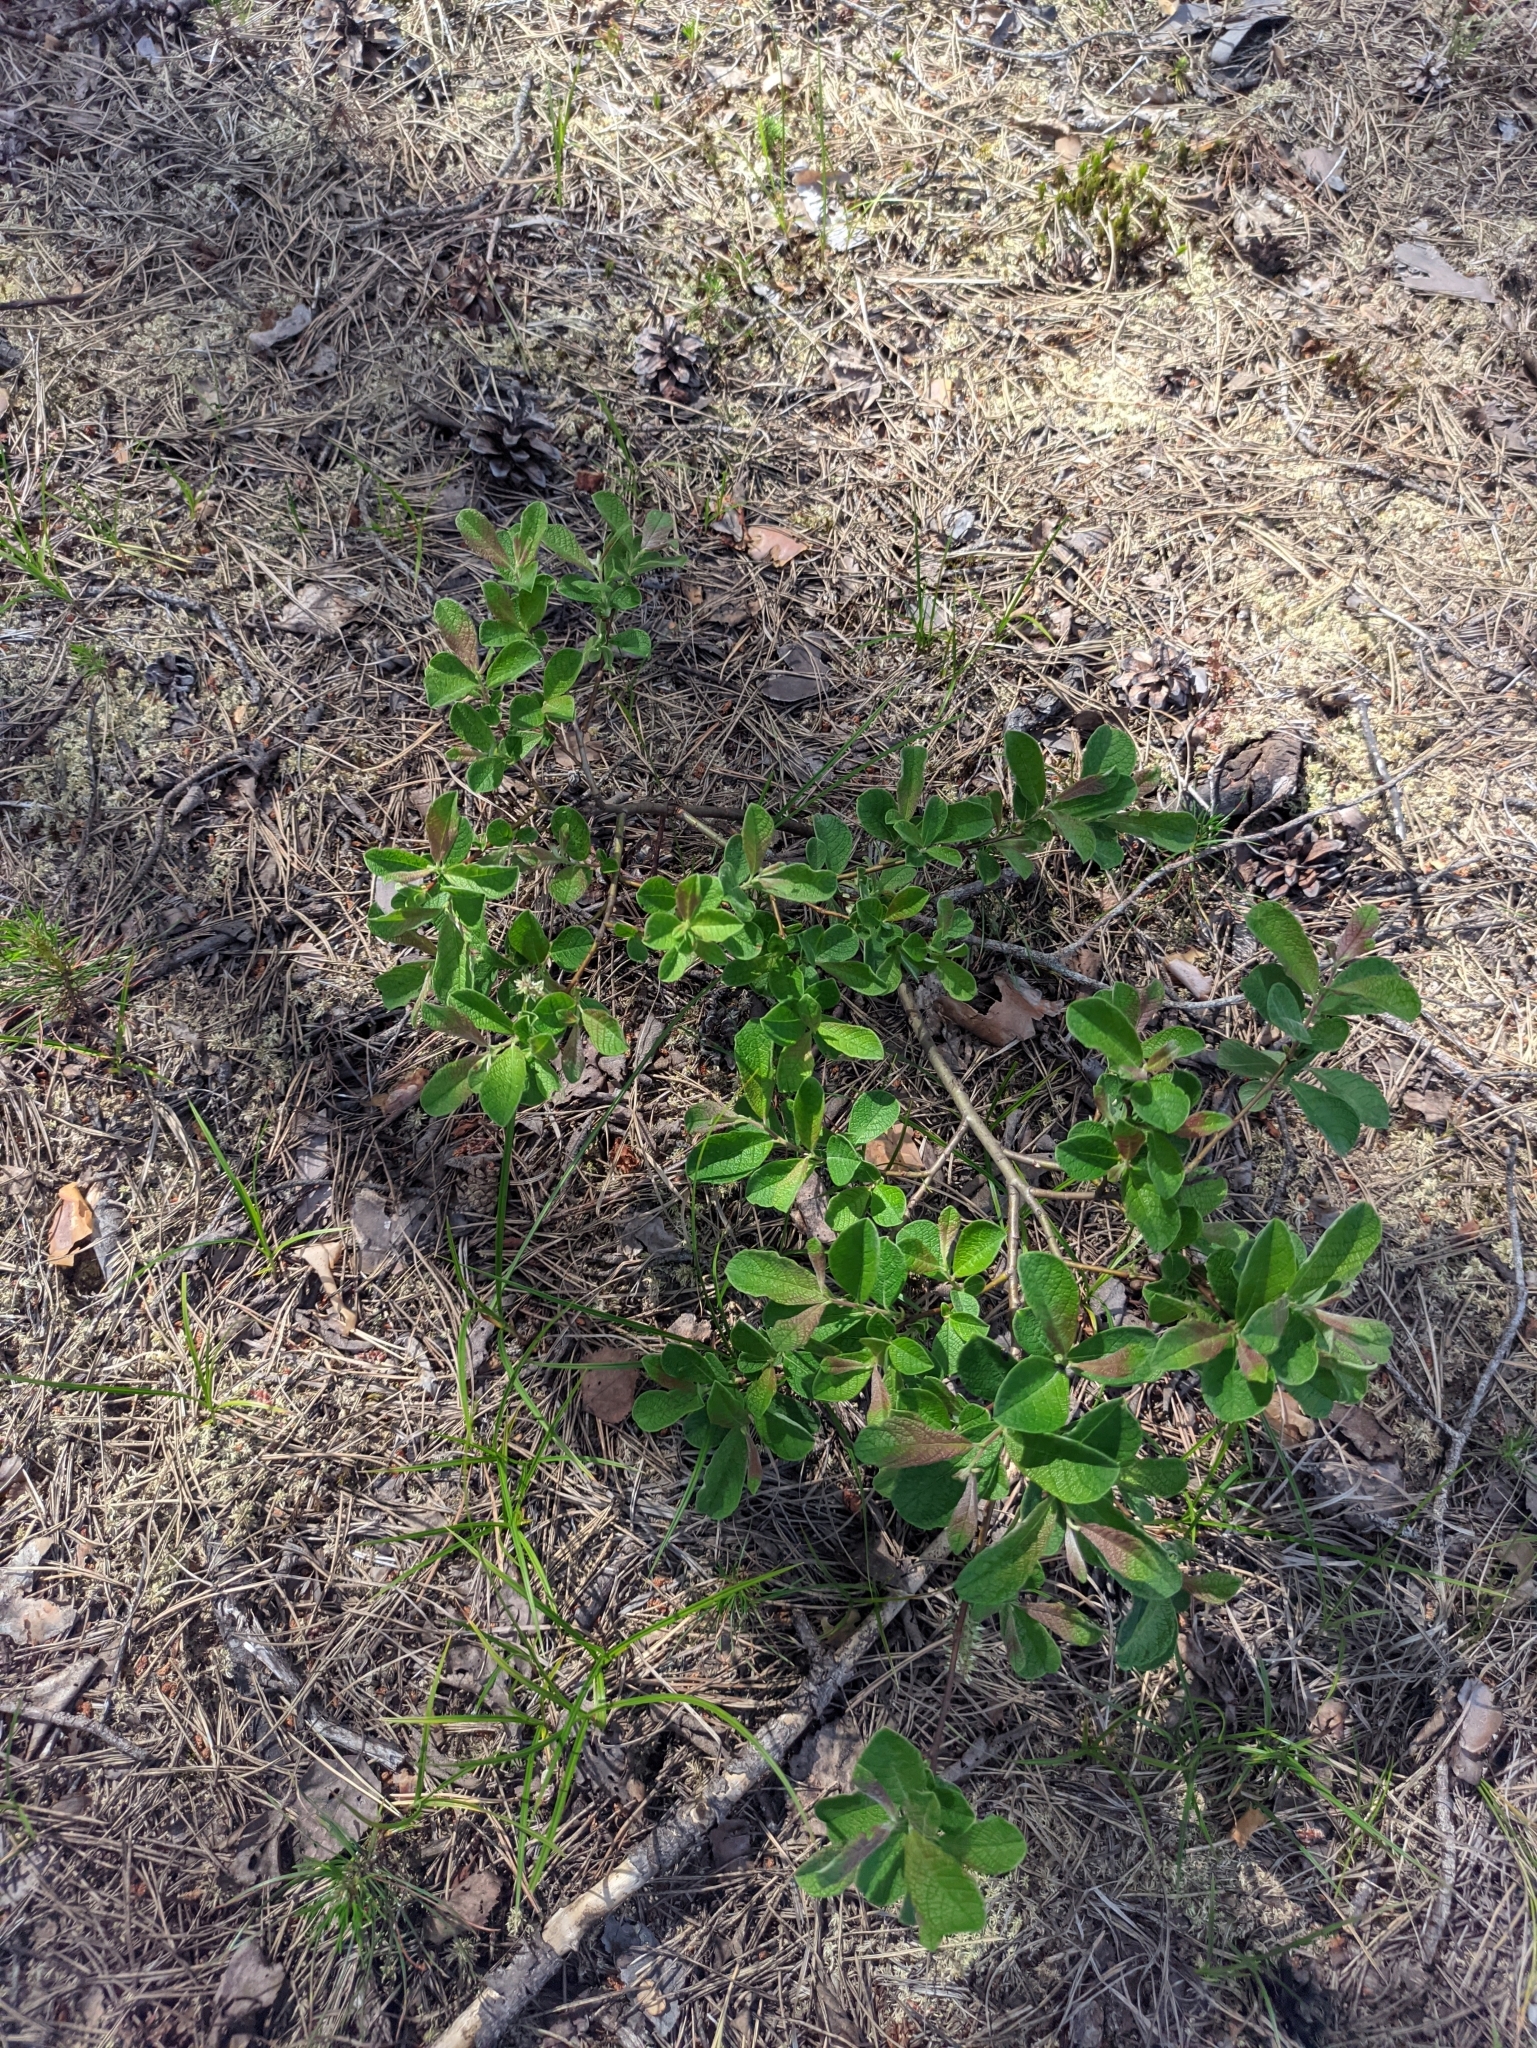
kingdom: Plantae
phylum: Tracheophyta
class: Magnoliopsida
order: Malpighiales
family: Salicaceae
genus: Salix
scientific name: Salix aurita
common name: Eared willow
